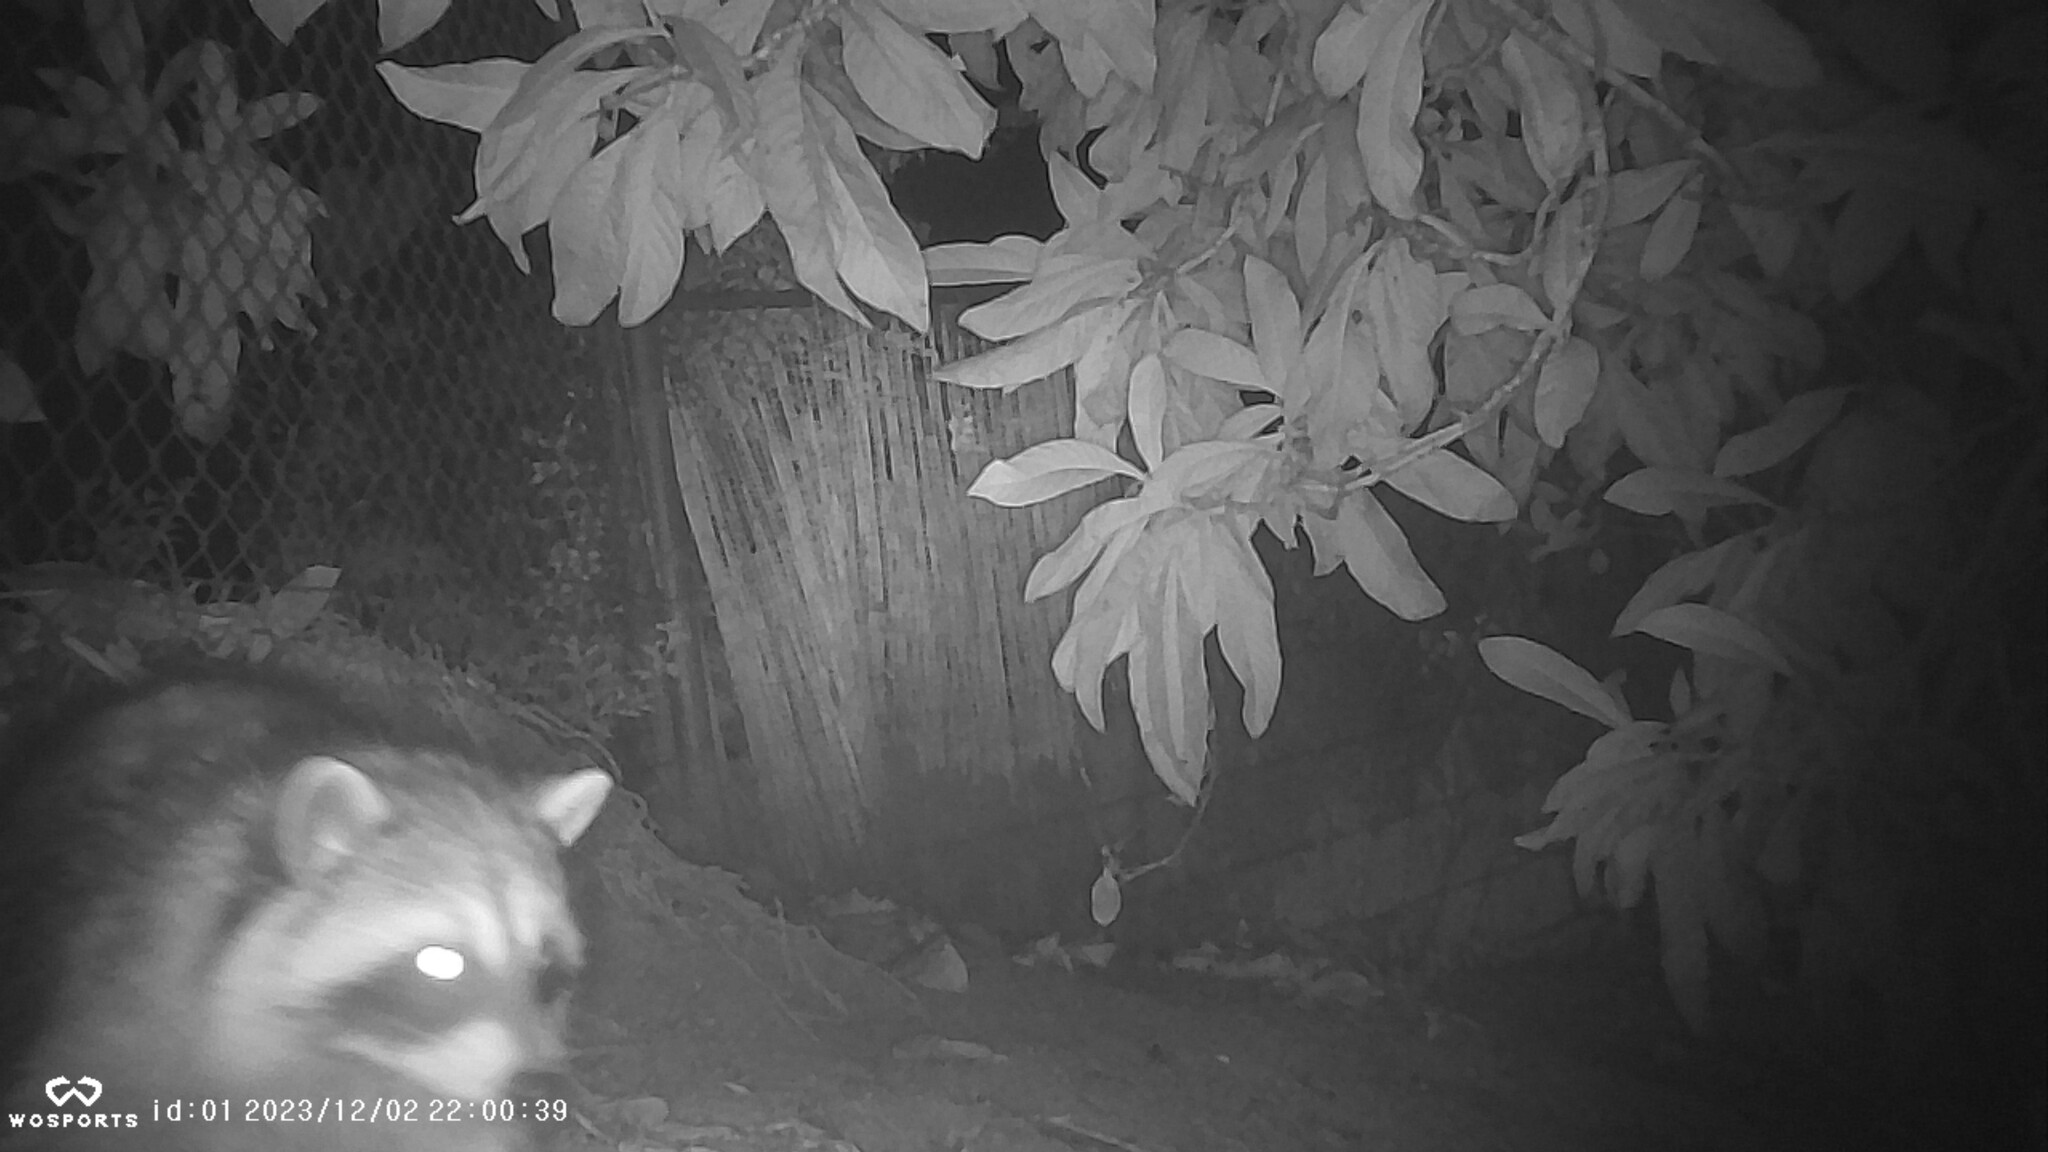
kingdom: Animalia
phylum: Chordata
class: Mammalia
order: Carnivora
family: Procyonidae
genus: Procyon
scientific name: Procyon lotor
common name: Raccoon
